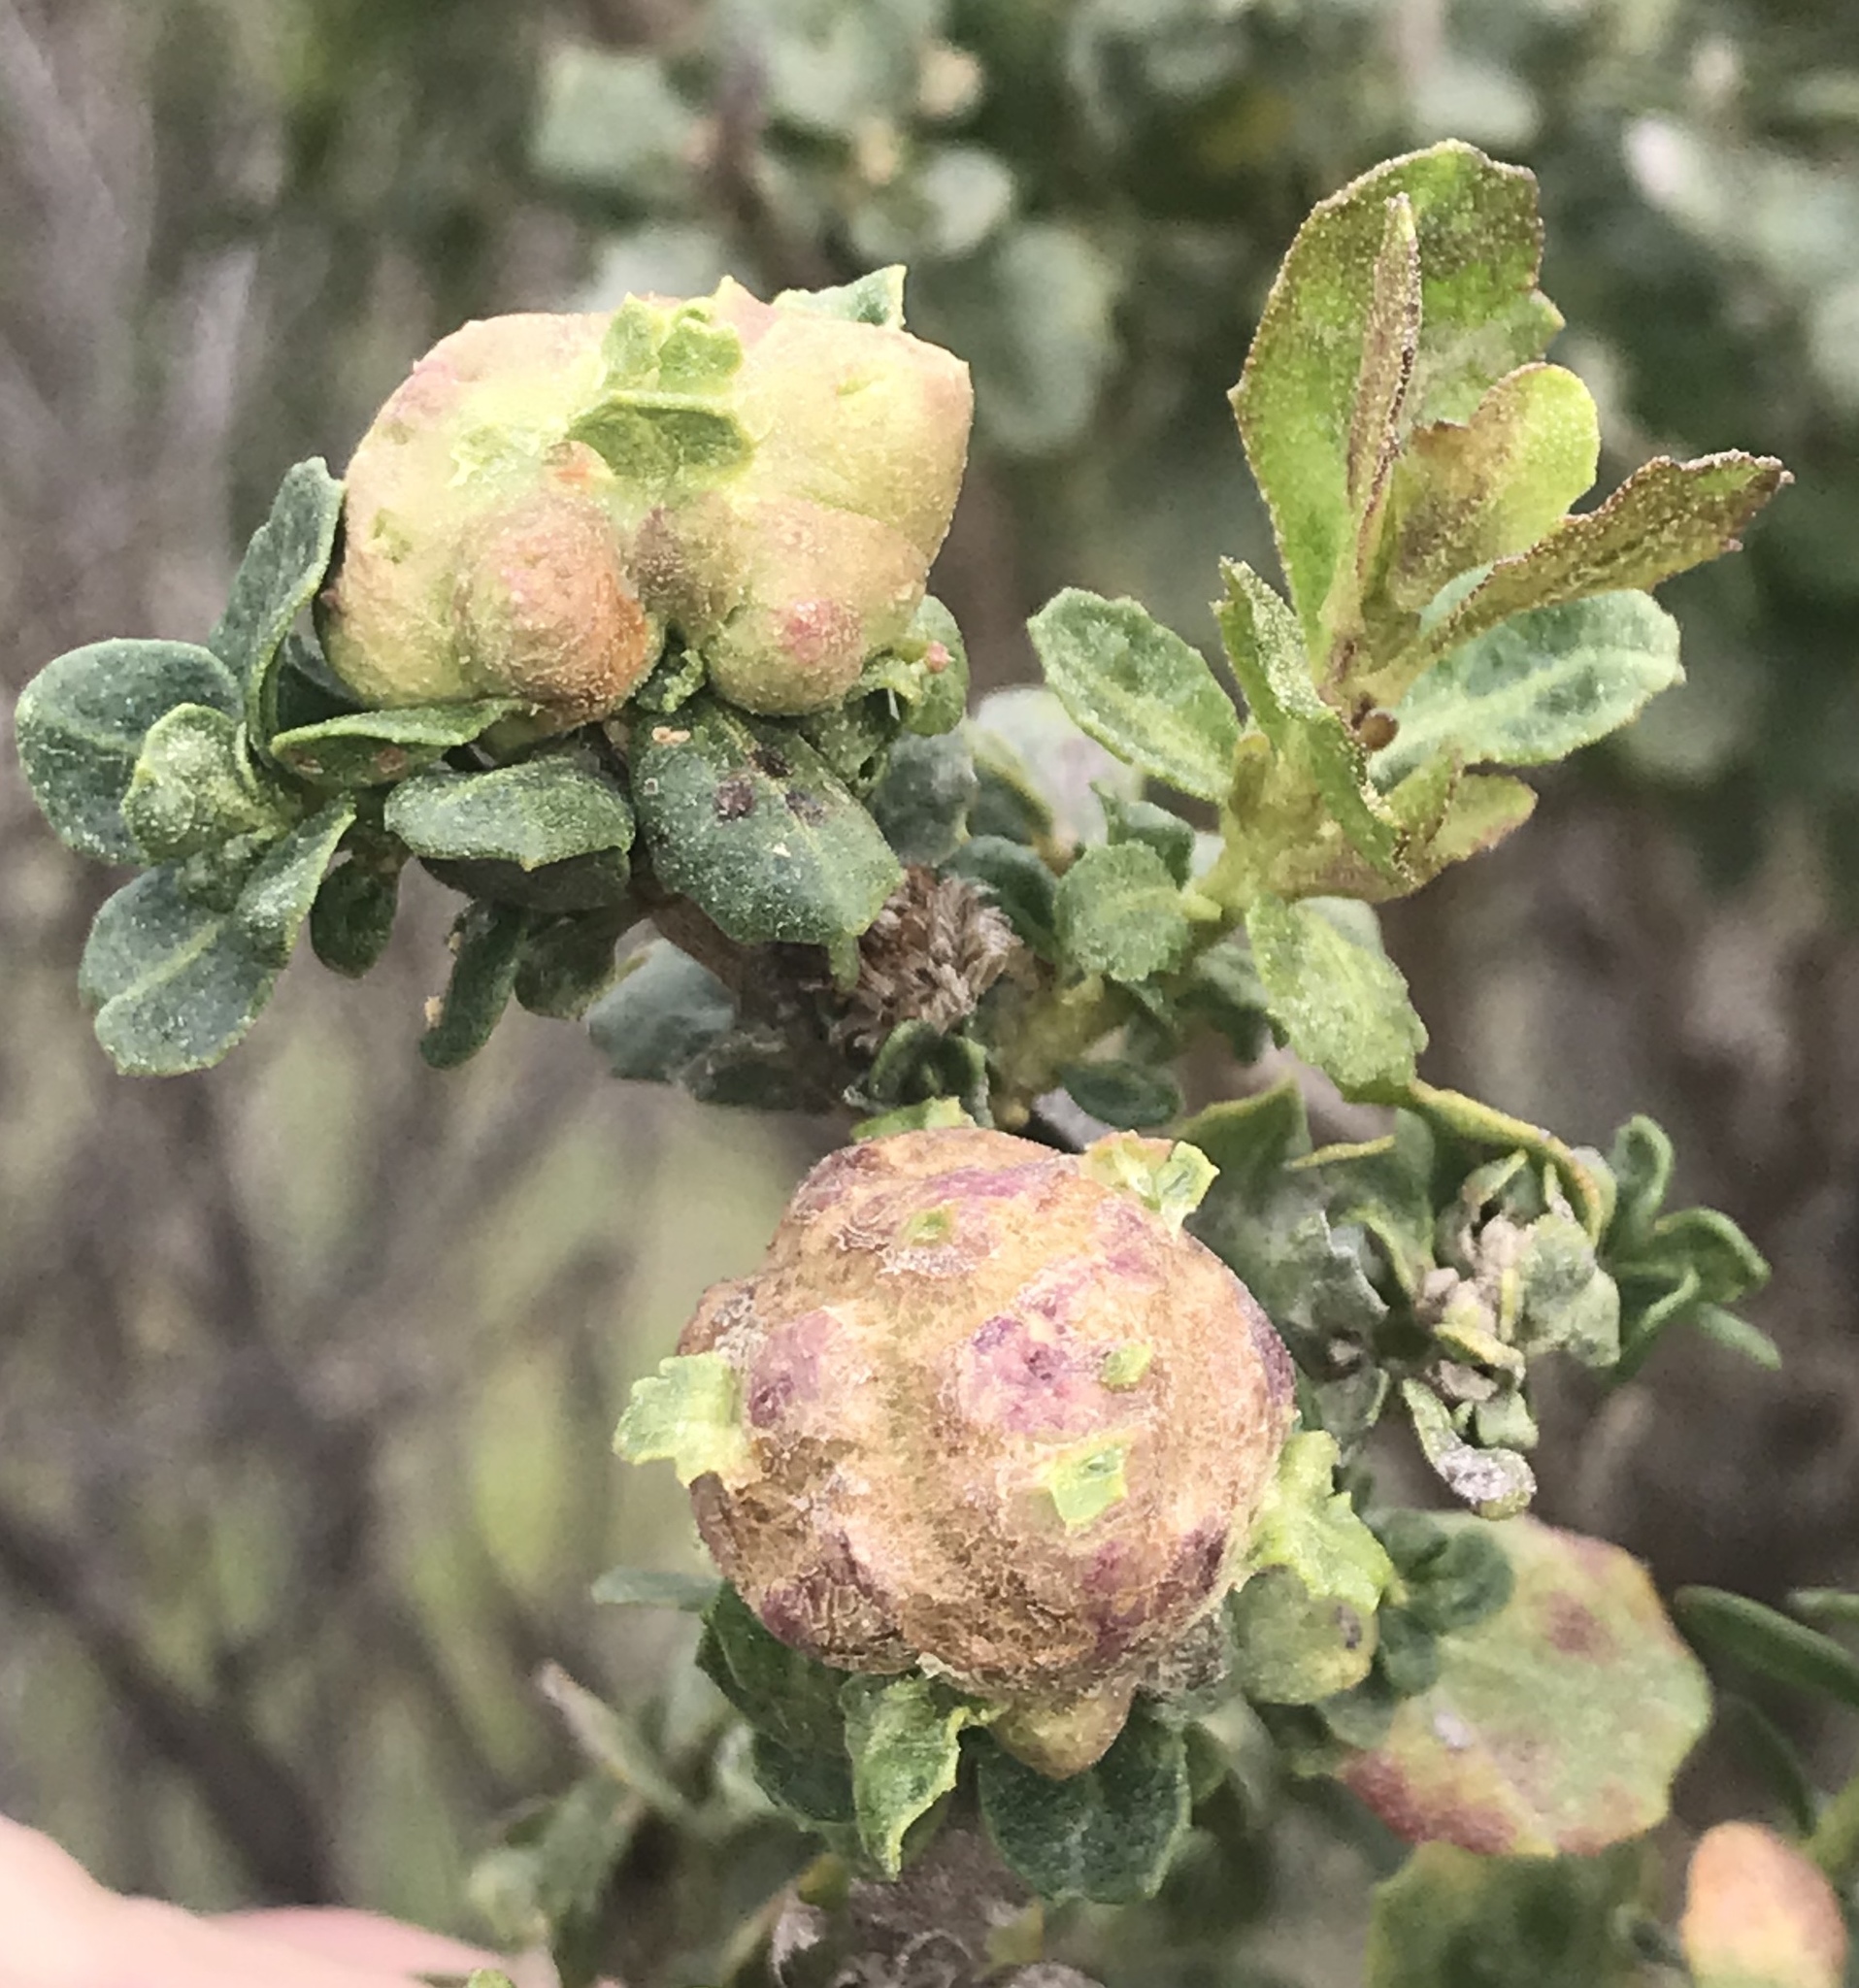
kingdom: Animalia
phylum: Arthropoda
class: Insecta
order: Diptera
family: Cecidomyiidae
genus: Rhopalomyia
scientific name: Rhopalomyia californica
